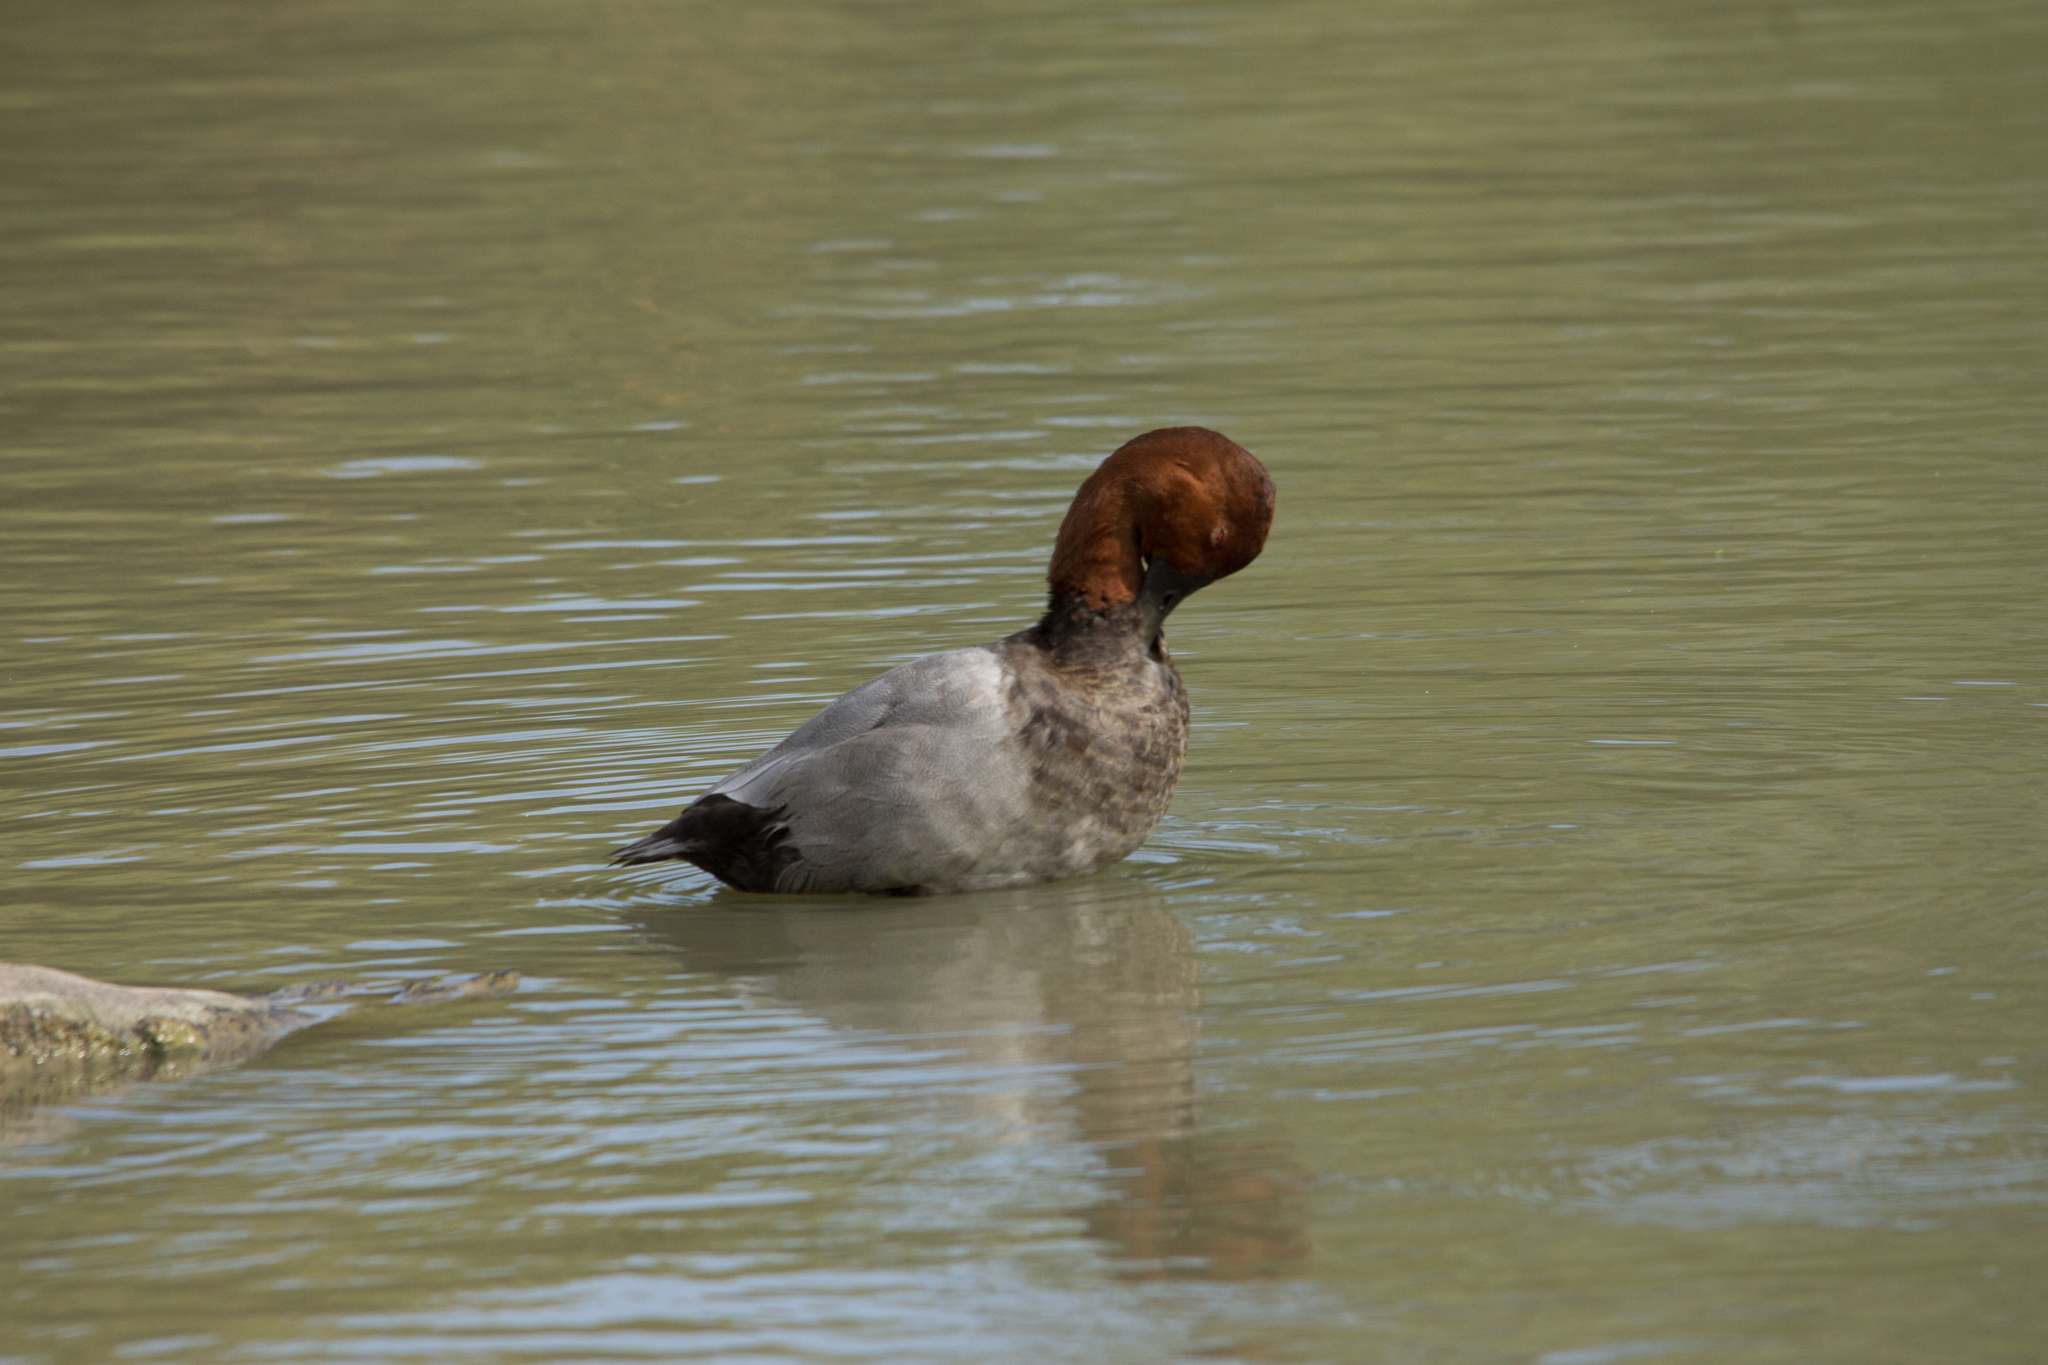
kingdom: Animalia
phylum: Chordata
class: Aves
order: Anseriformes
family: Anatidae
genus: Aythya
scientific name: Aythya ferina
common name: Common pochard
